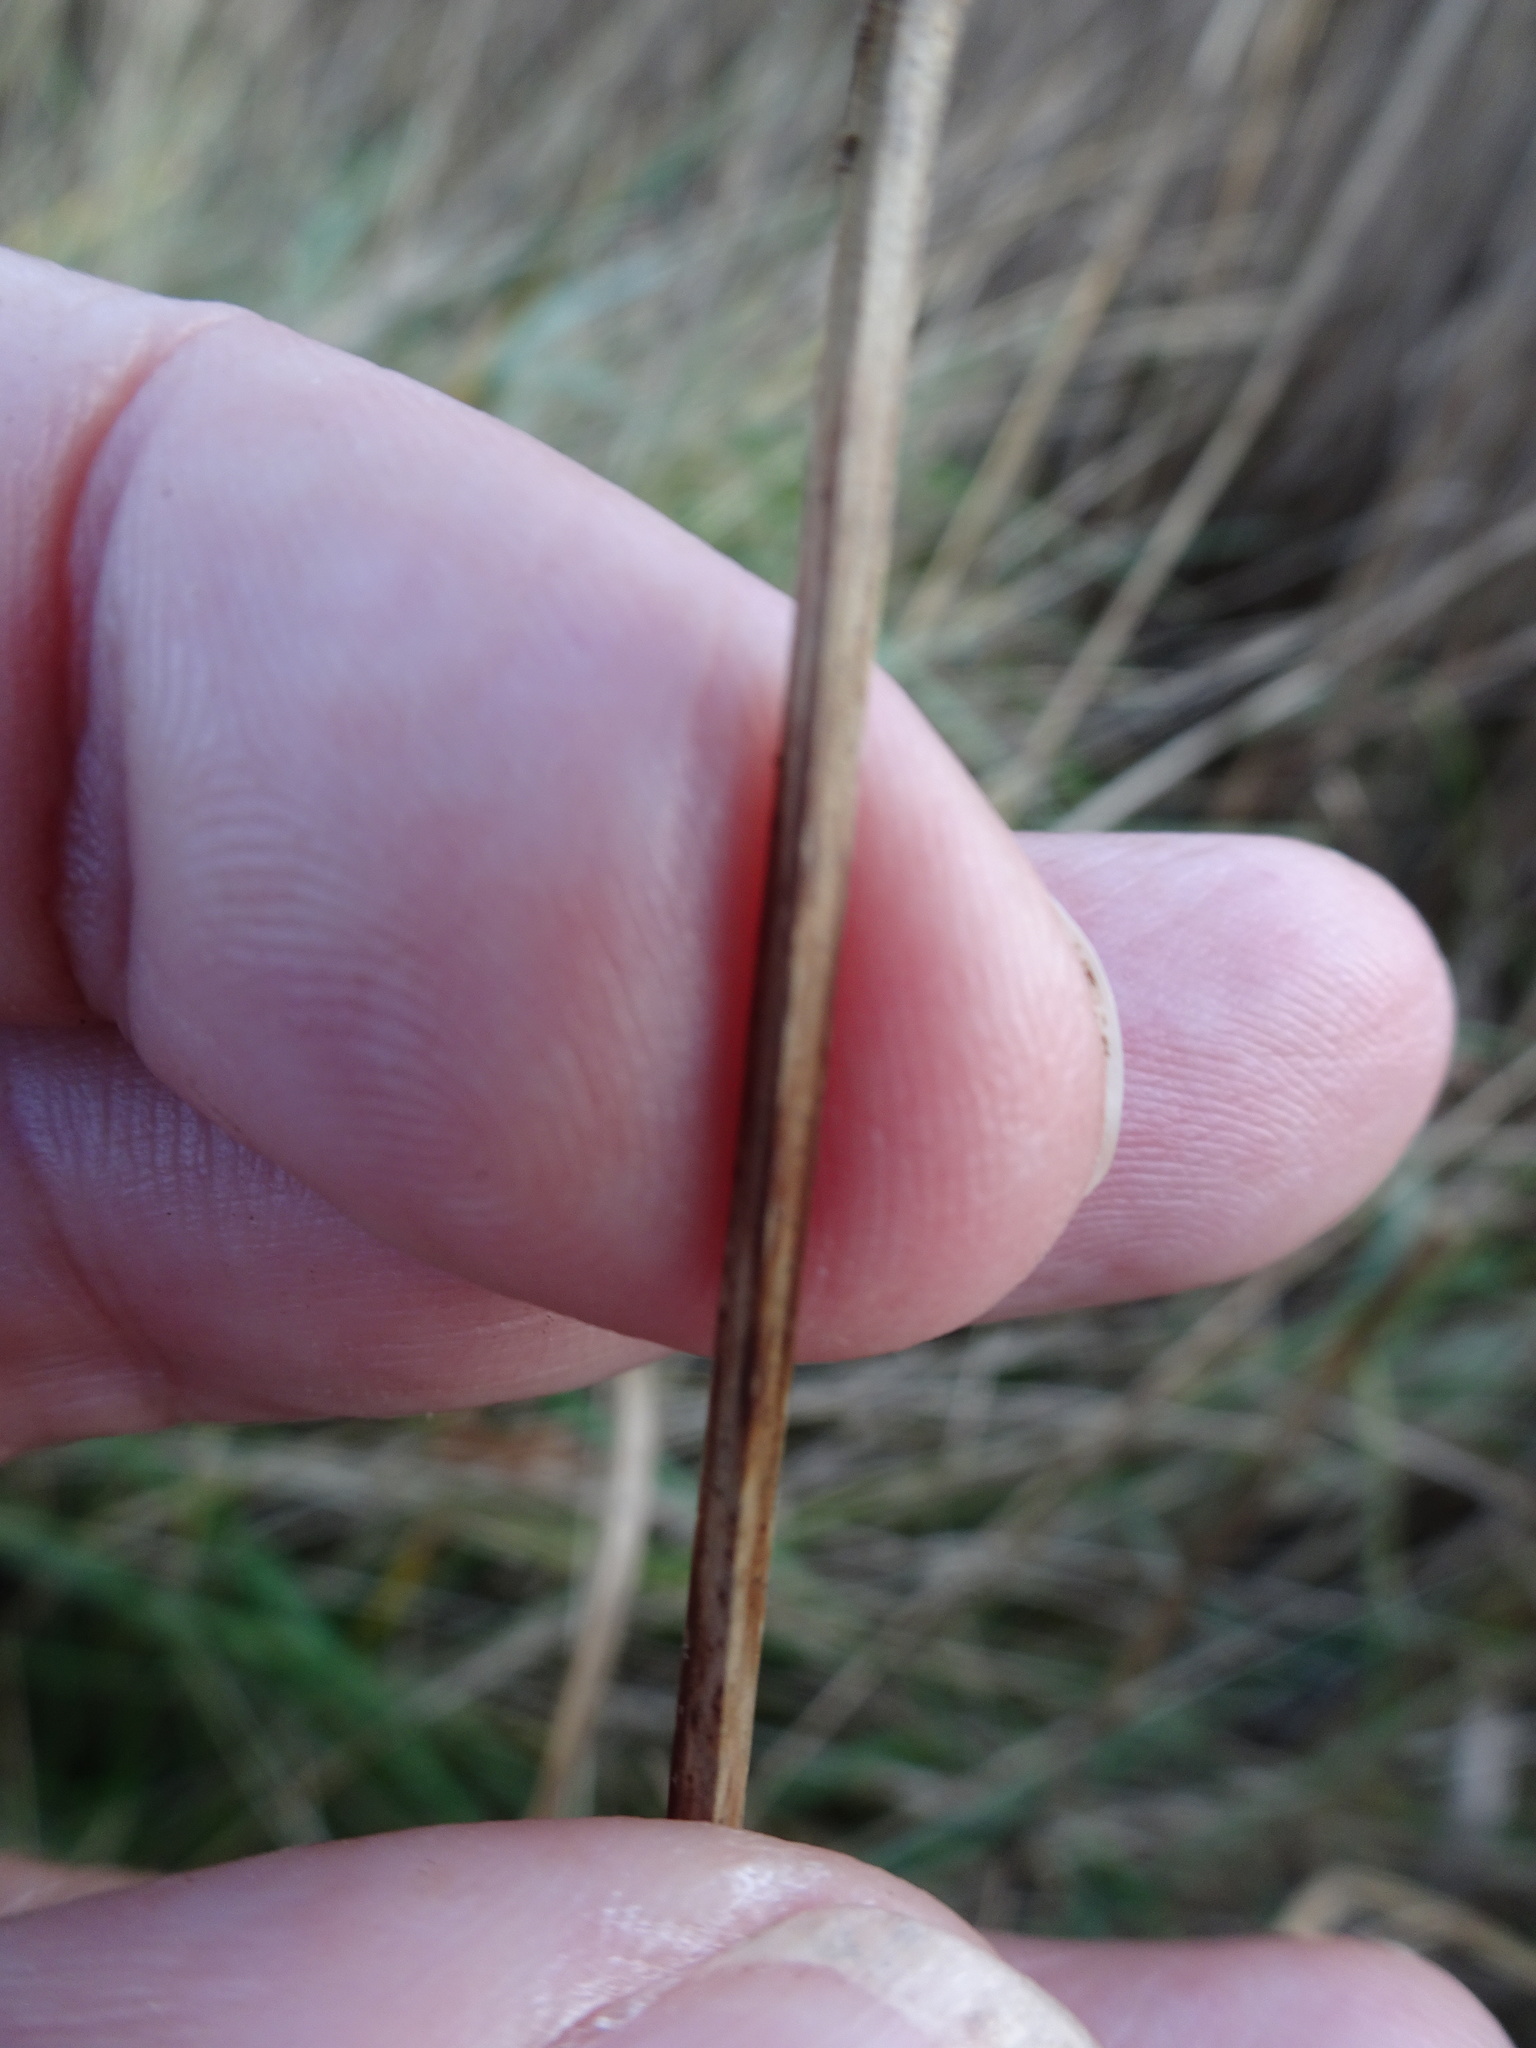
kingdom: Plantae
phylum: Tracheophyta
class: Liliopsida
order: Poales
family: Cyperaceae
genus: Bolboschoenus
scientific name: Bolboschoenus maritimus
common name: Sea club-rush
